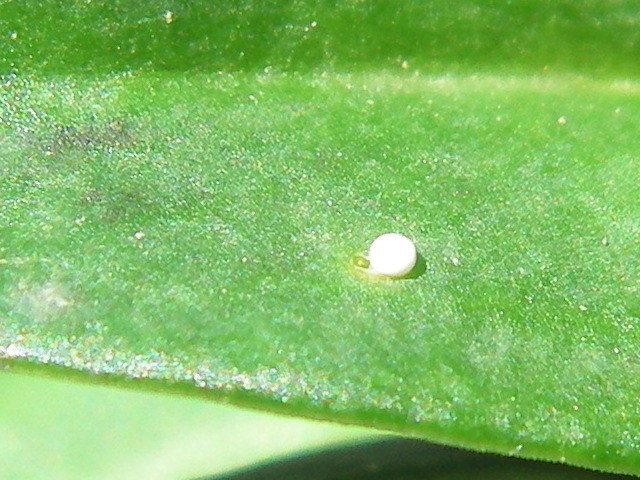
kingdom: Animalia
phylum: Arthropoda
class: Insecta
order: Lepidoptera
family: Lycaenidae
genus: Maculinea
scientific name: Maculinea alcon
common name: Alcon blue
